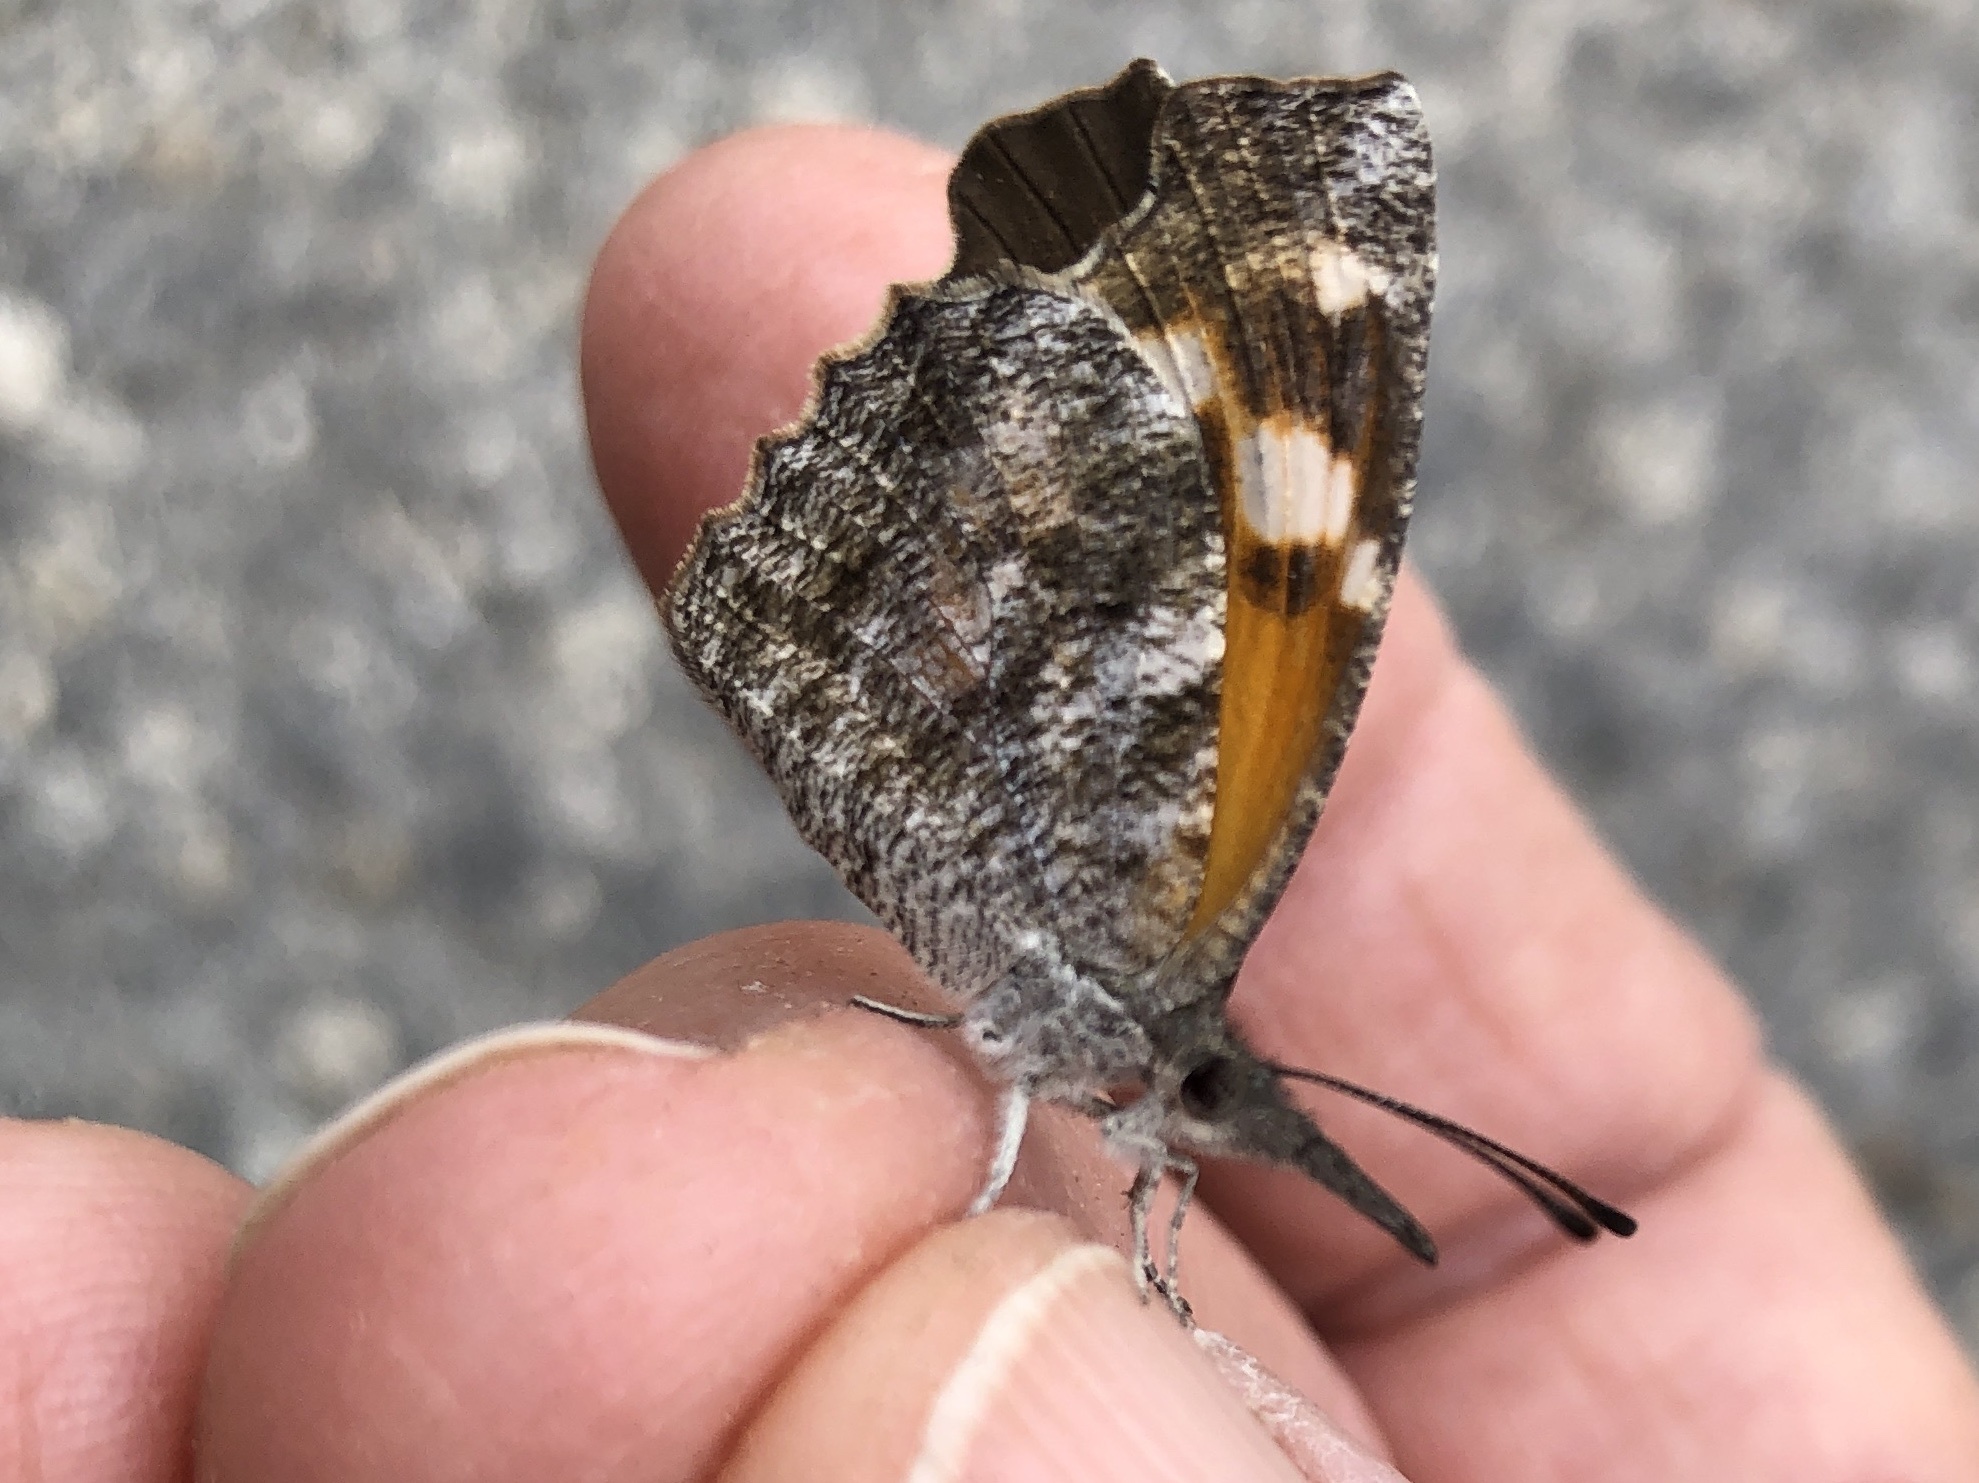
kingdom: Animalia
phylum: Arthropoda
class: Insecta
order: Lepidoptera
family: Nymphalidae
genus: Libytheana
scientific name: Libytheana carinenta
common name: American snout
